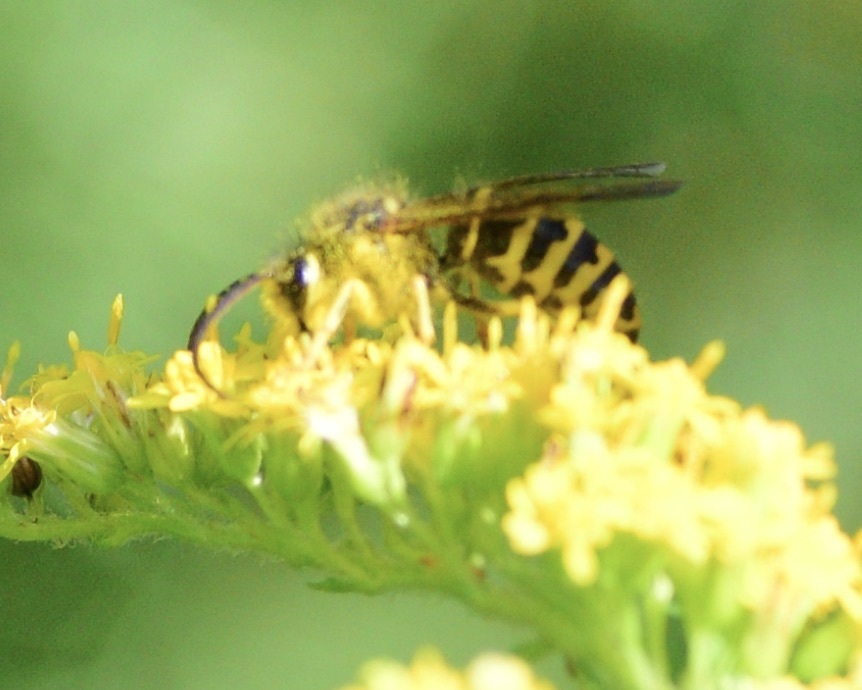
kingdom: Animalia
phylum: Arthropoda
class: Insecta
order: Hymenoptera
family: Vespidae
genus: Dolichovespula
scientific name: Dolichovespula arenaria
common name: Aerial yellowjacket
